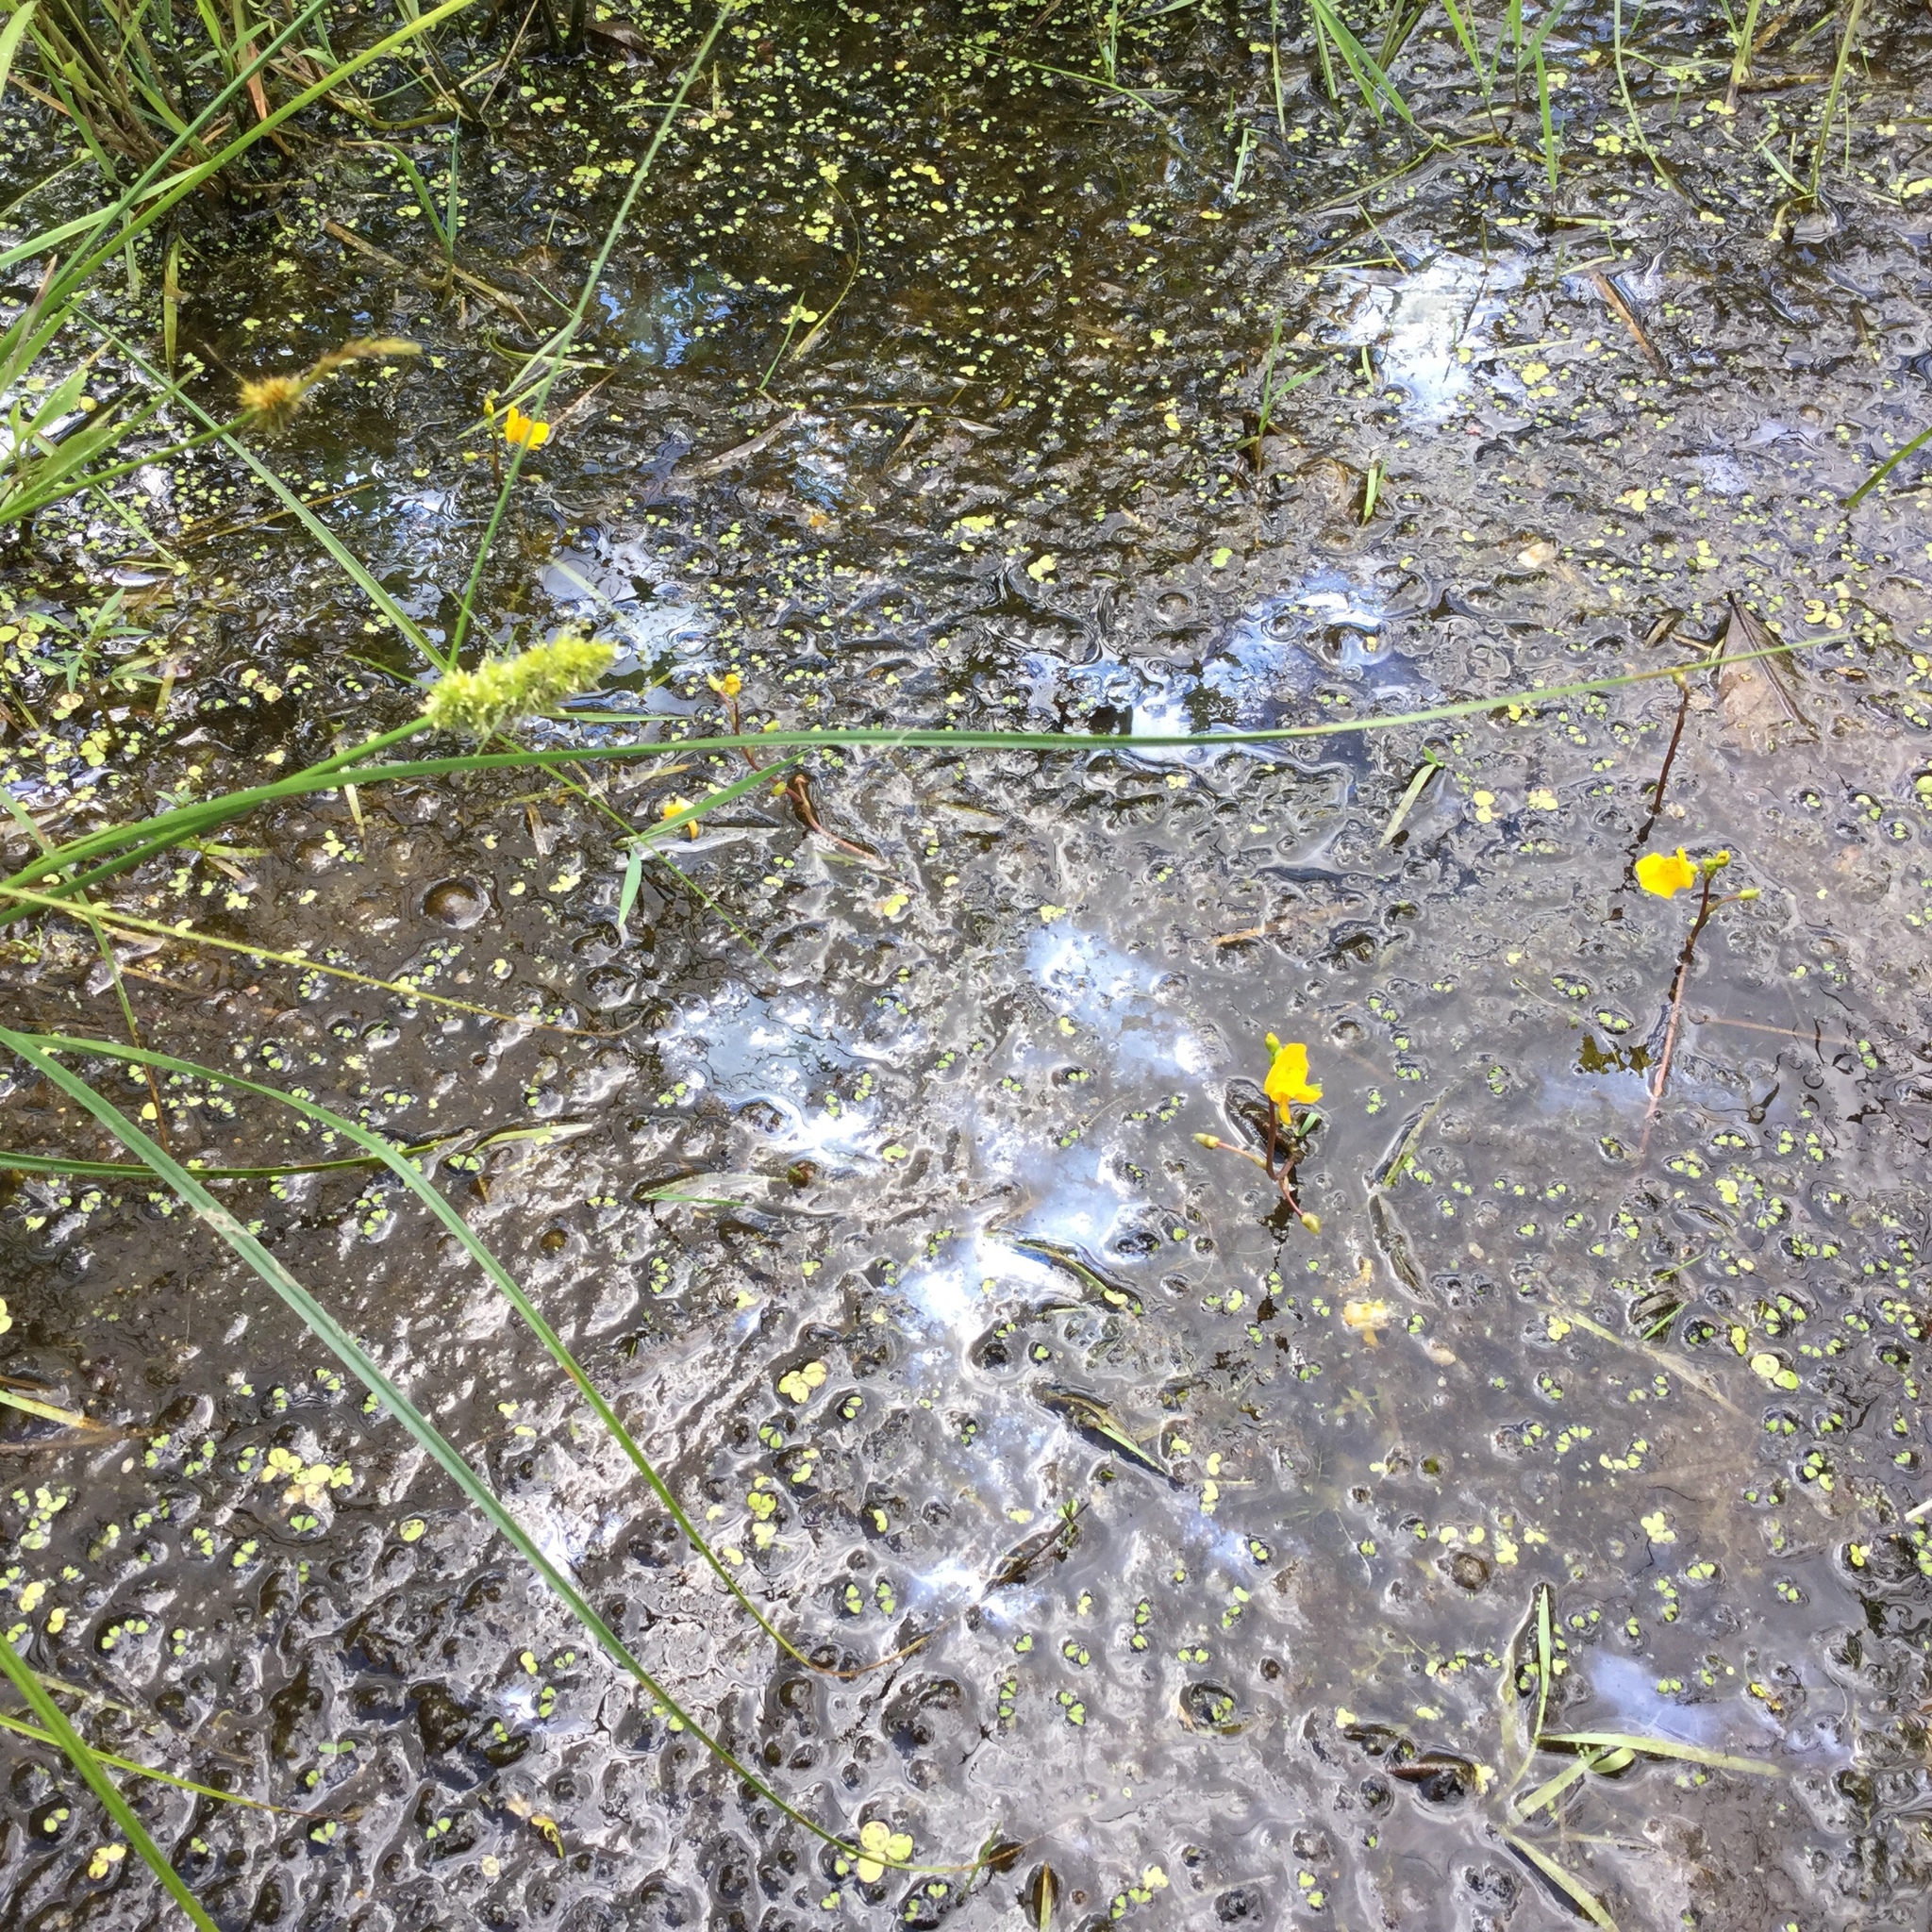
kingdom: Plantae
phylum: Tracheophyta
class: Magnoliopsida
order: Lamiales
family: Lentibulariaceae
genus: Utricularia
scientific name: Utricularia macrorhiza
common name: Common bladderwort
